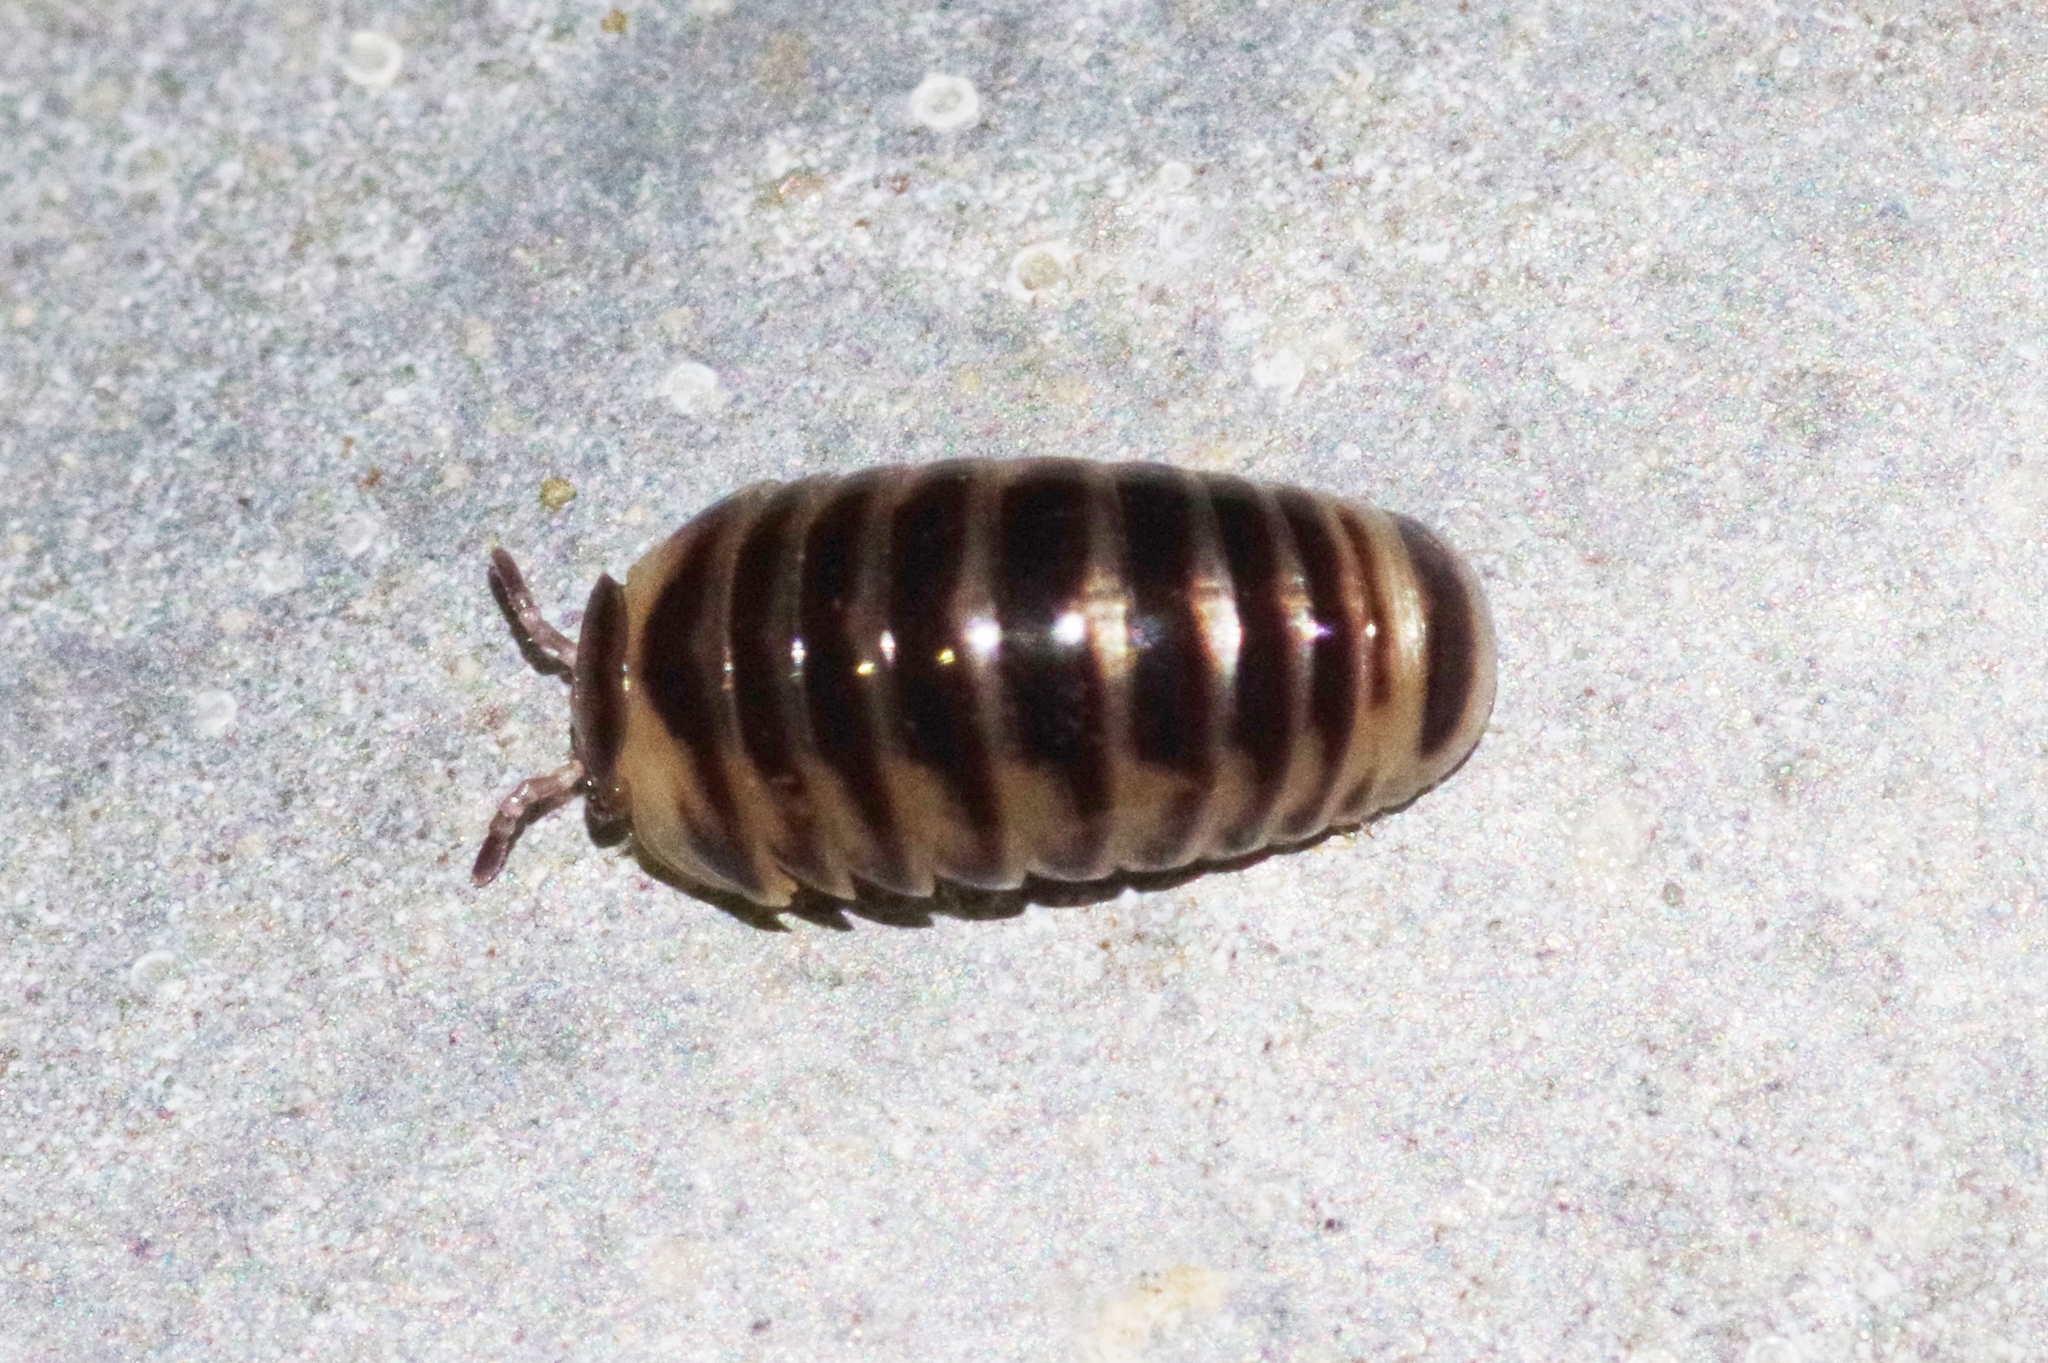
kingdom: Animalia
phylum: Arthropoda
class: Diplopoda
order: Glomerida
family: Glomeridae
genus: Hyleoglomeris
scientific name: Hyleoglomeris yamashinai
